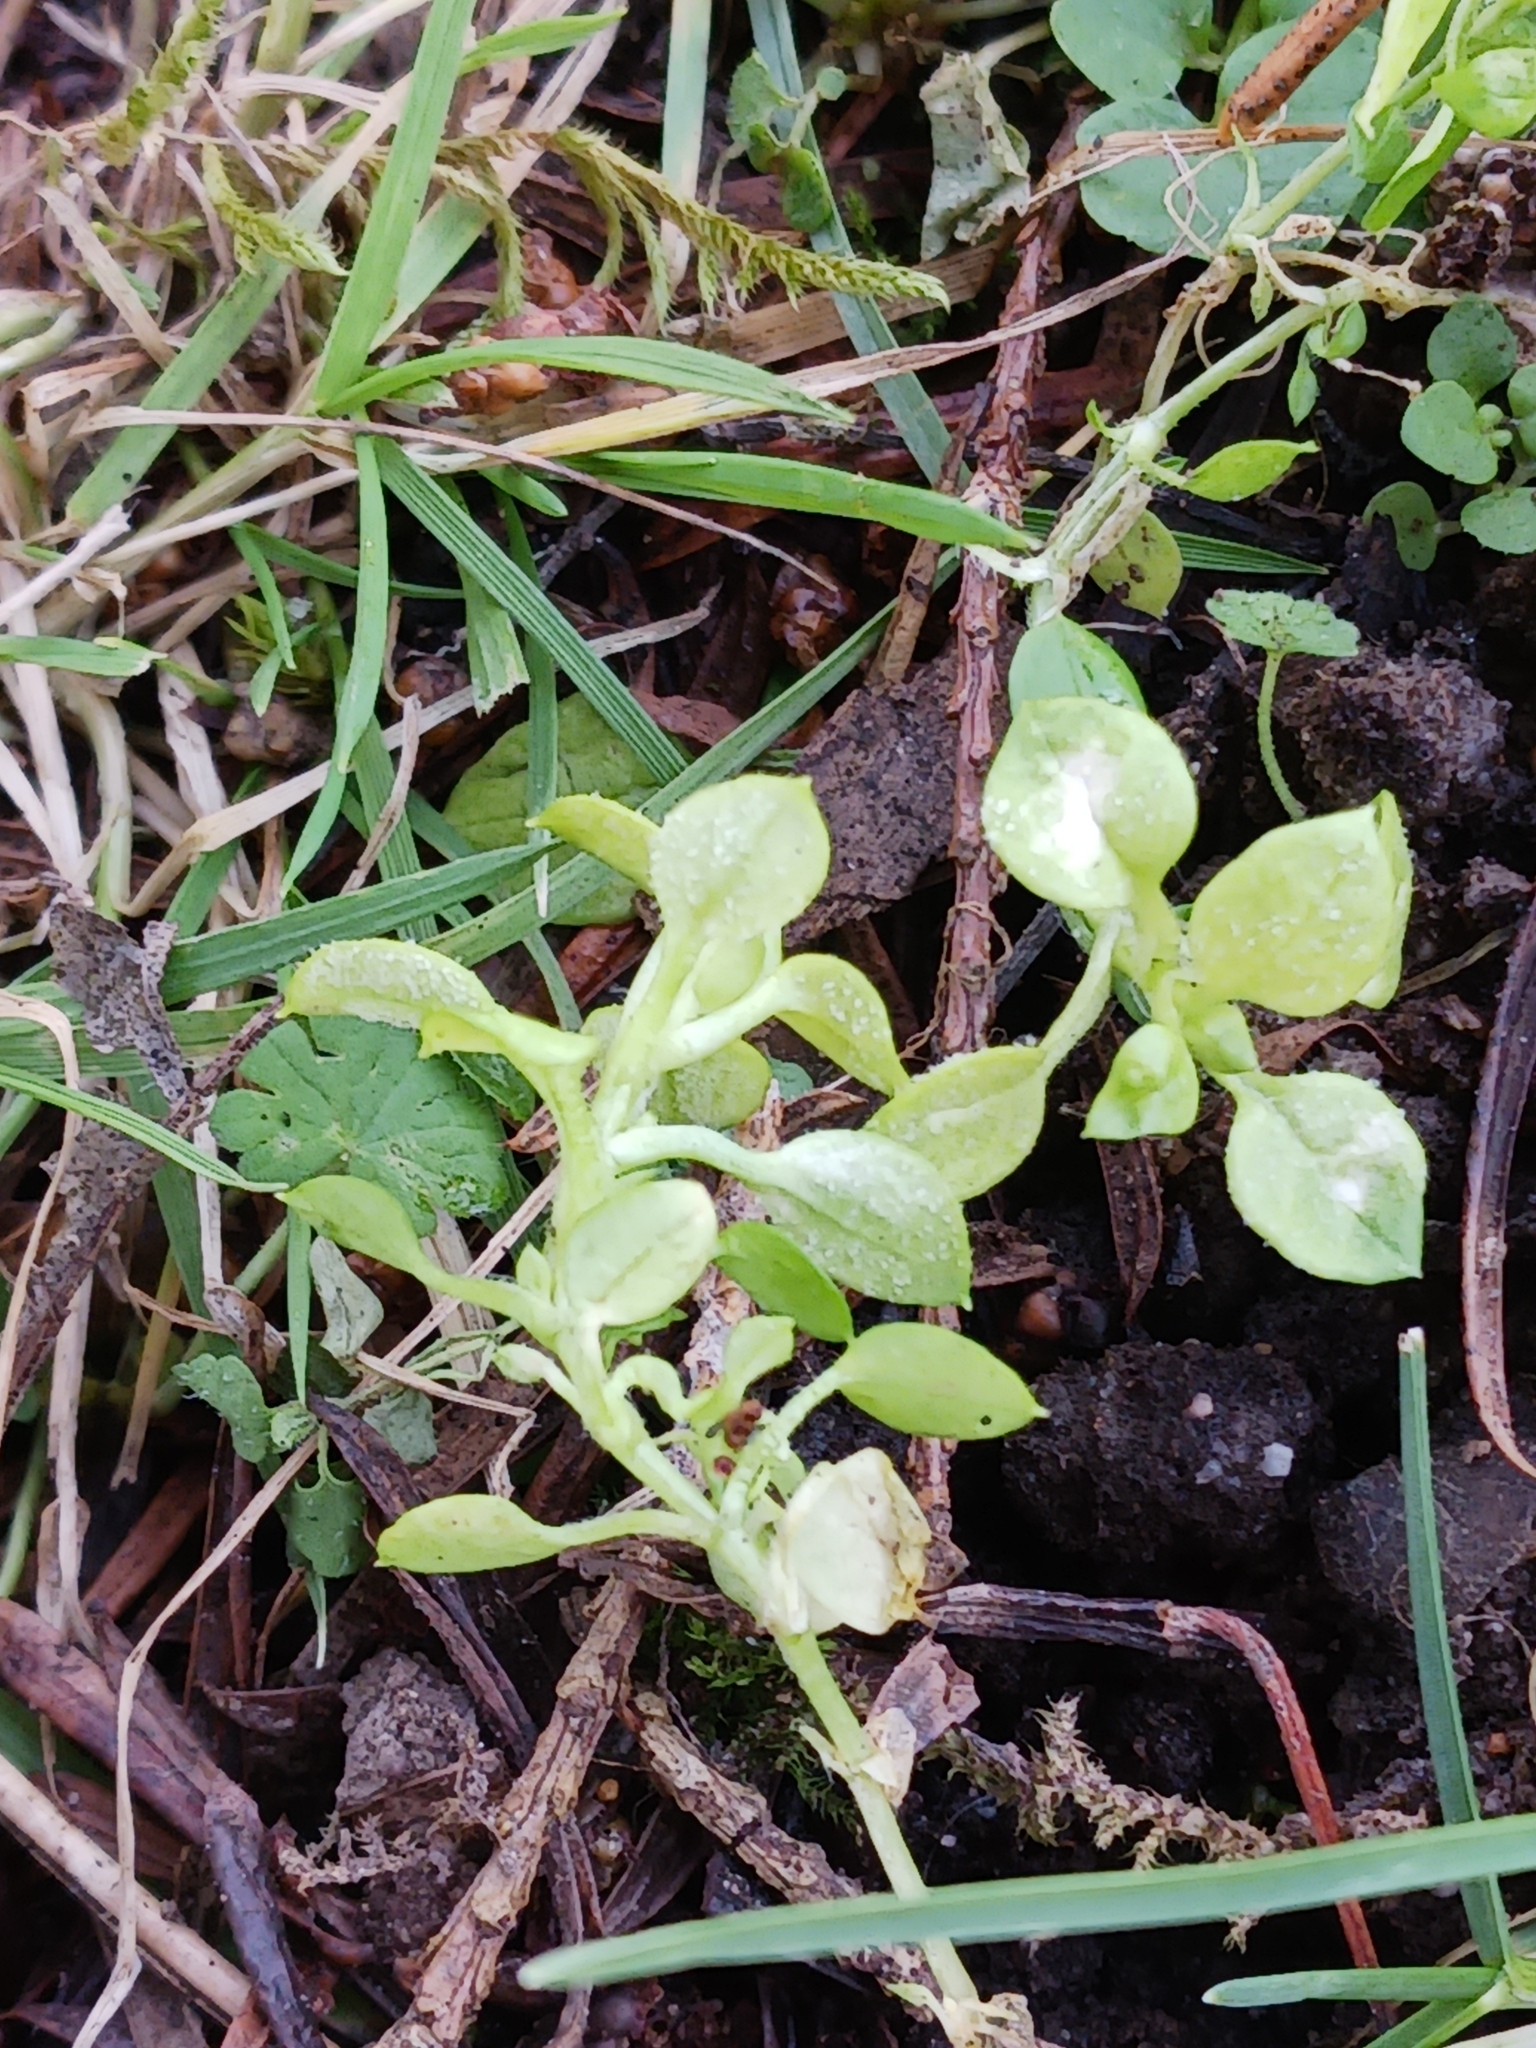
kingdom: Chromista
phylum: Oomycota
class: Peronosporea
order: Peronosporales
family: Peronosporaceae
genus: Peronospora
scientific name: Peronospora alsinearum
